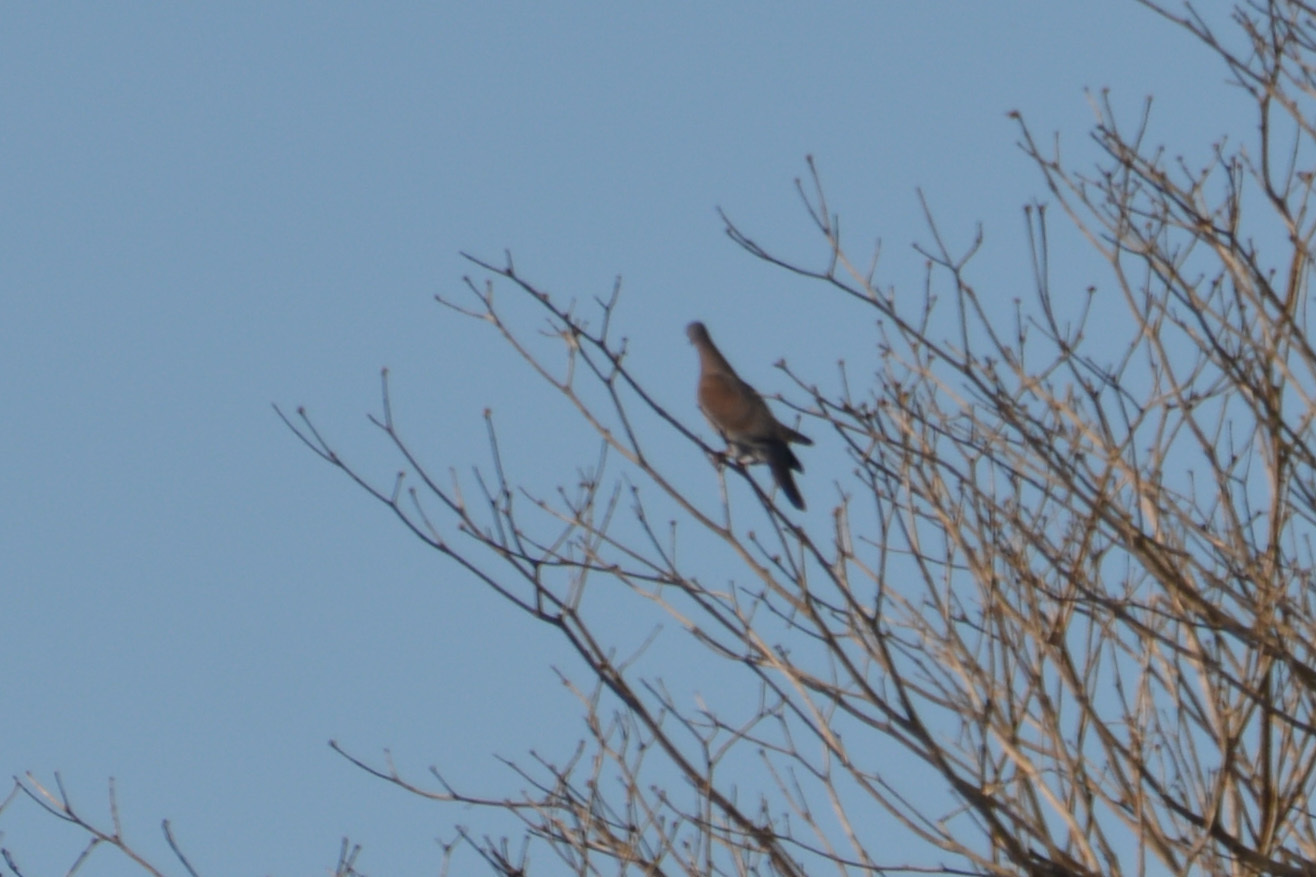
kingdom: Animalia
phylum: Chordata
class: Aves
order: Columbiformes
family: Columbidae
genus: Patagioenas
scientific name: Patagioenas cayennensis
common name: Pale-vented pigeon
